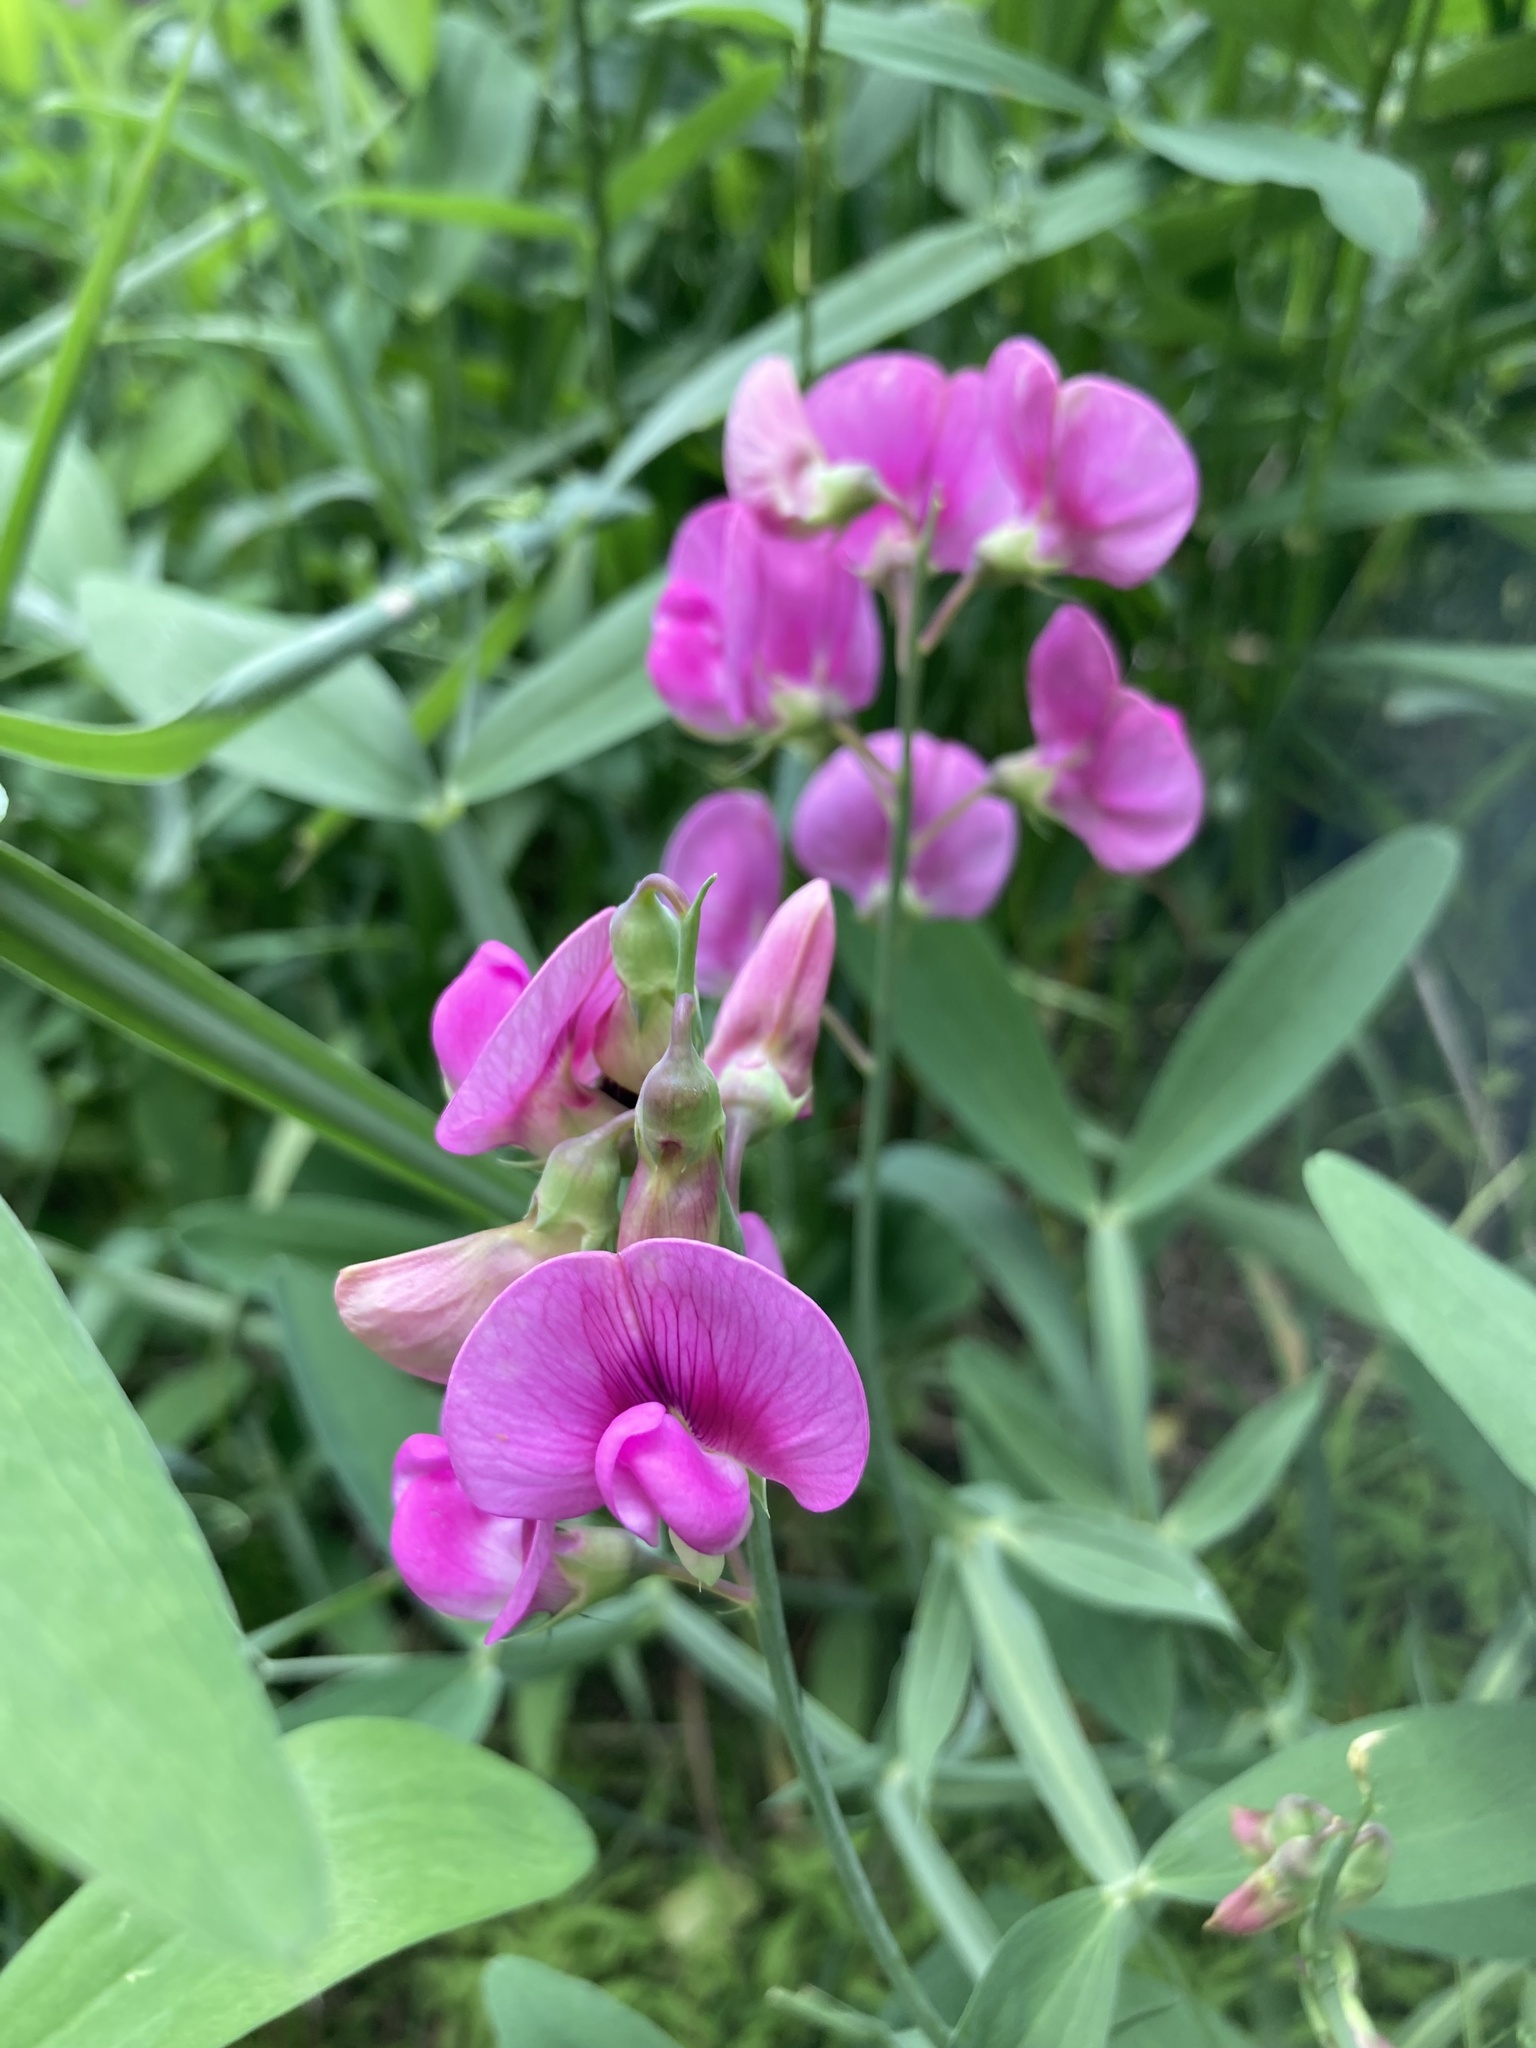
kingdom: Plantae
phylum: Tracheophyta
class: Magnoliopsida
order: Fabales
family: Fabaceae
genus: Lathyrus
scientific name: Lathyrus latifolius
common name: Perennial pea
